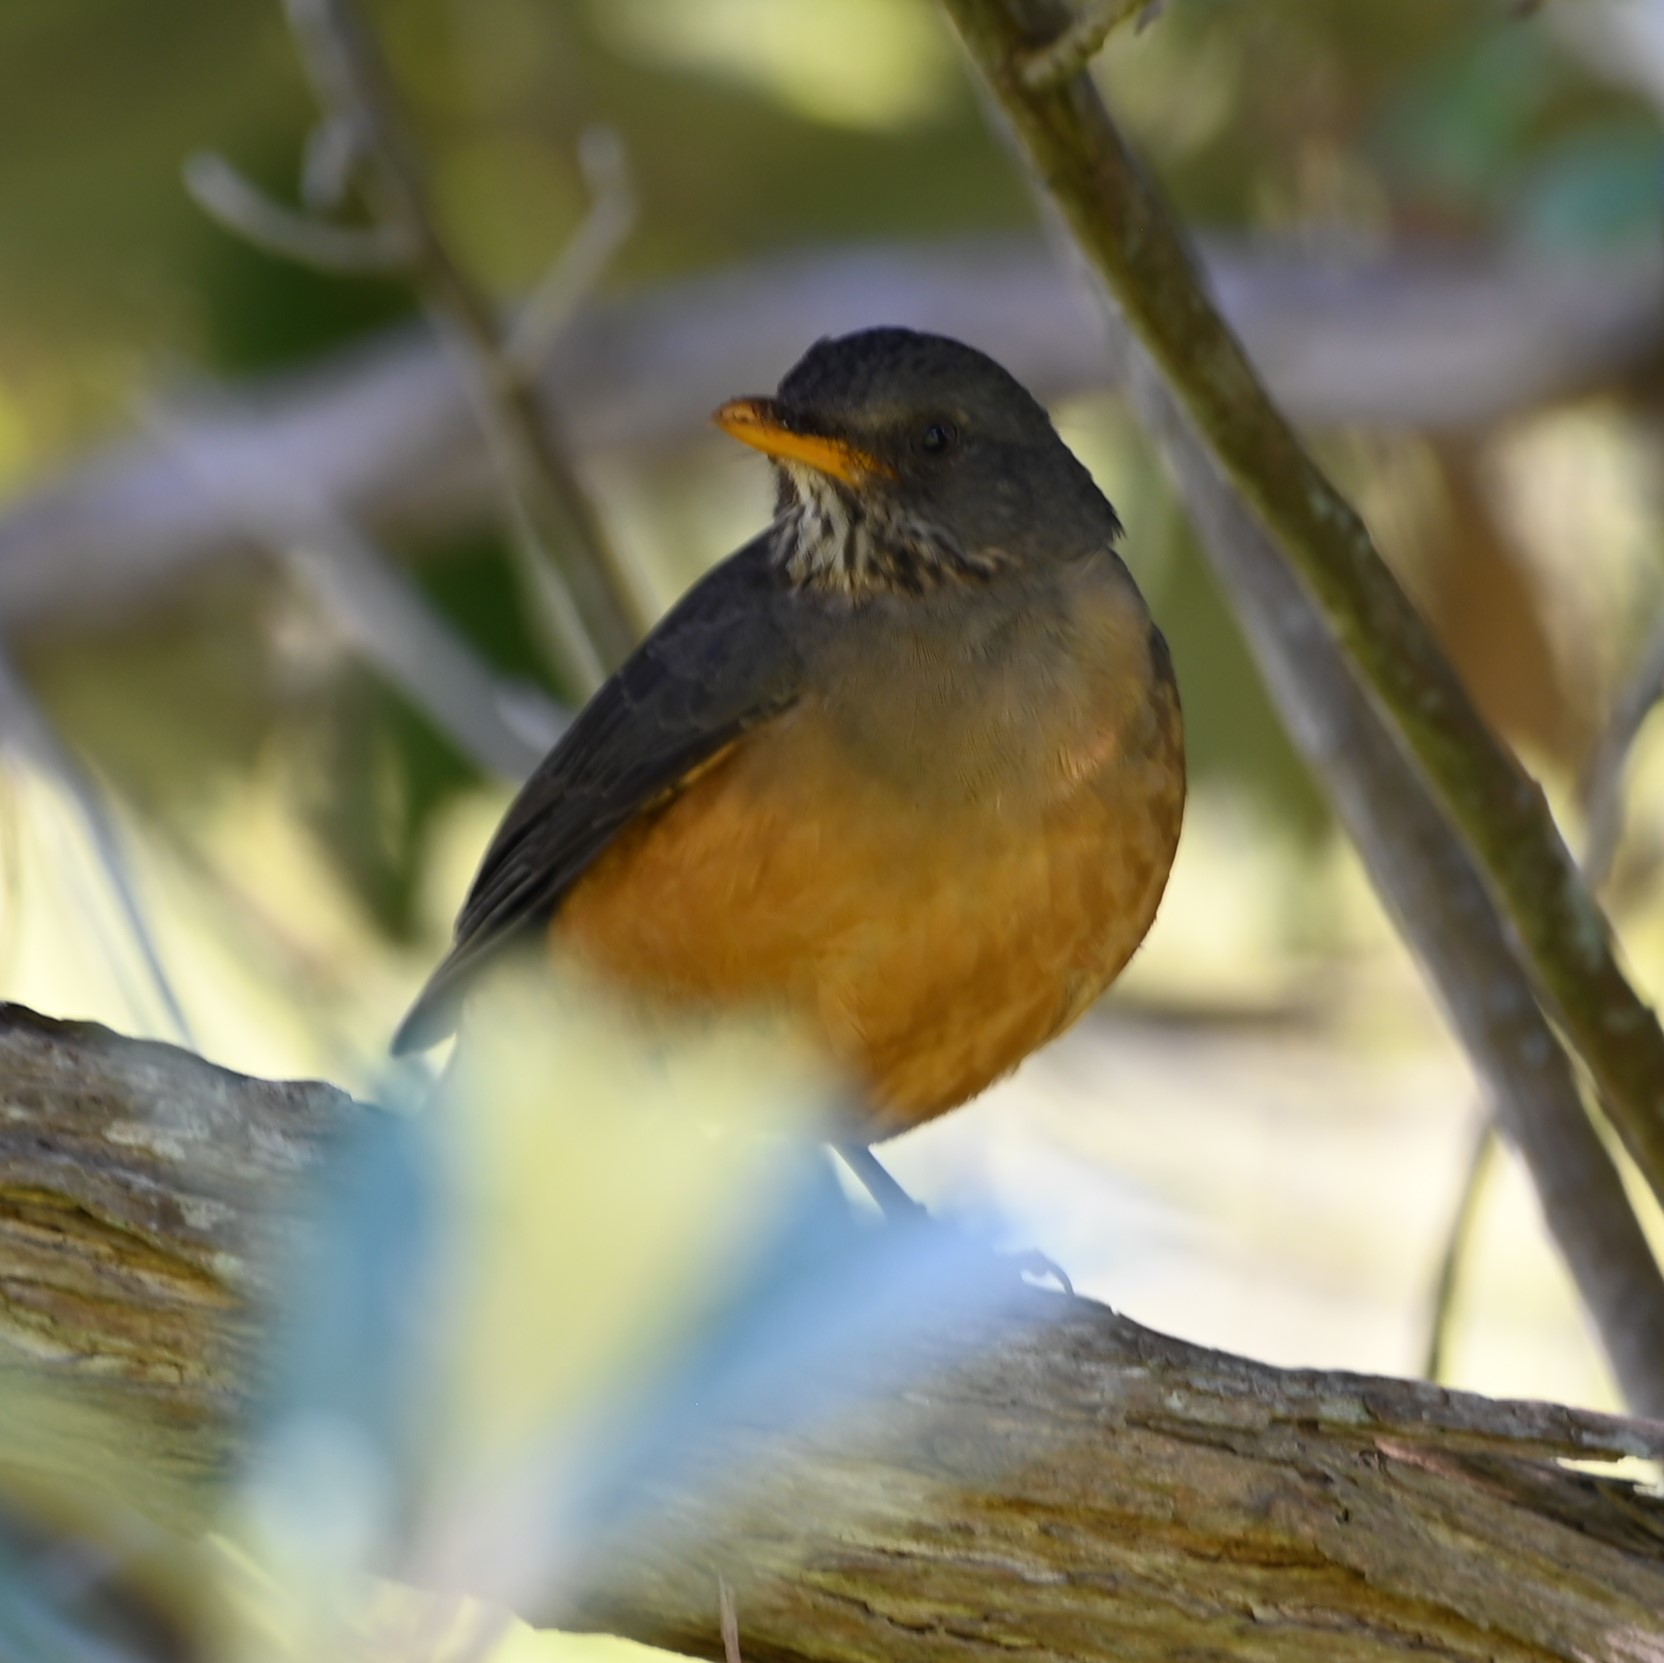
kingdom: Animalia
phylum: Chordata
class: Aves
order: Passeriformes
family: Turdidae
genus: Turdus
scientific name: Turdus olivaceus
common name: Olive thrush
